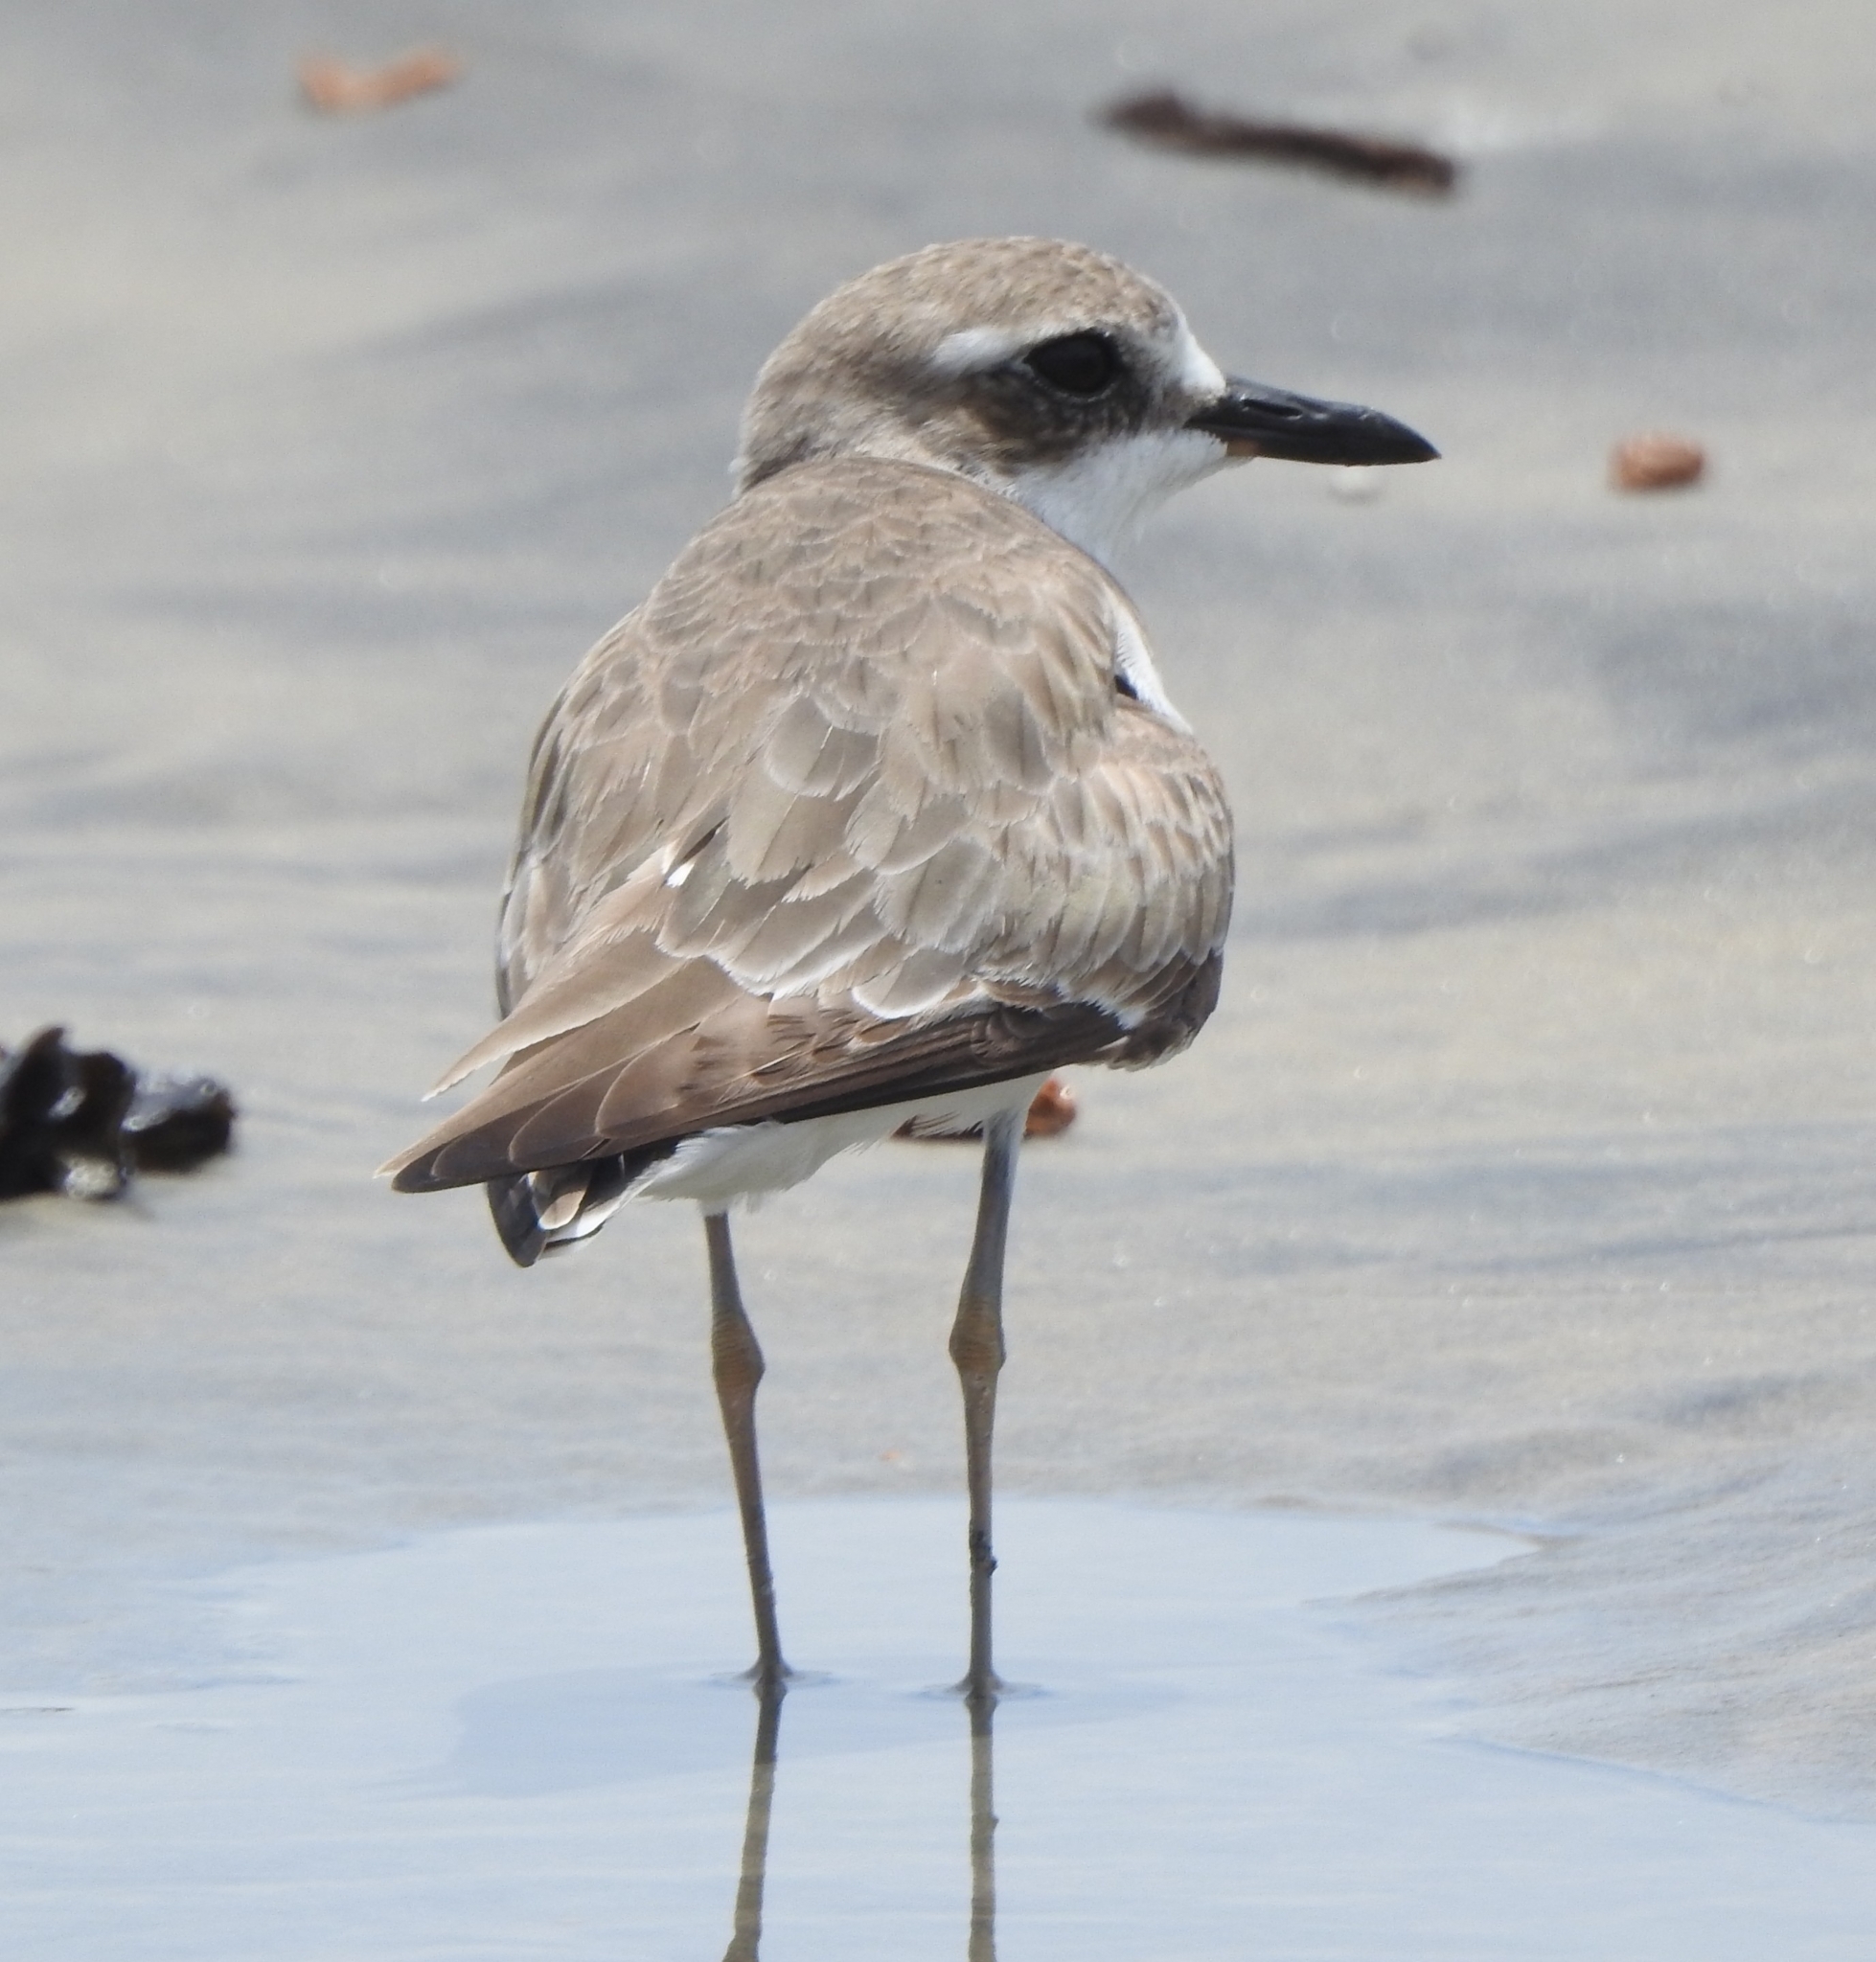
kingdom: Animalia
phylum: Chordata
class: Aves
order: Charadriiformes
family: Charadriidae
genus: Charadrius
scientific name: Charadrius leschenaultii
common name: Greater sand plover
